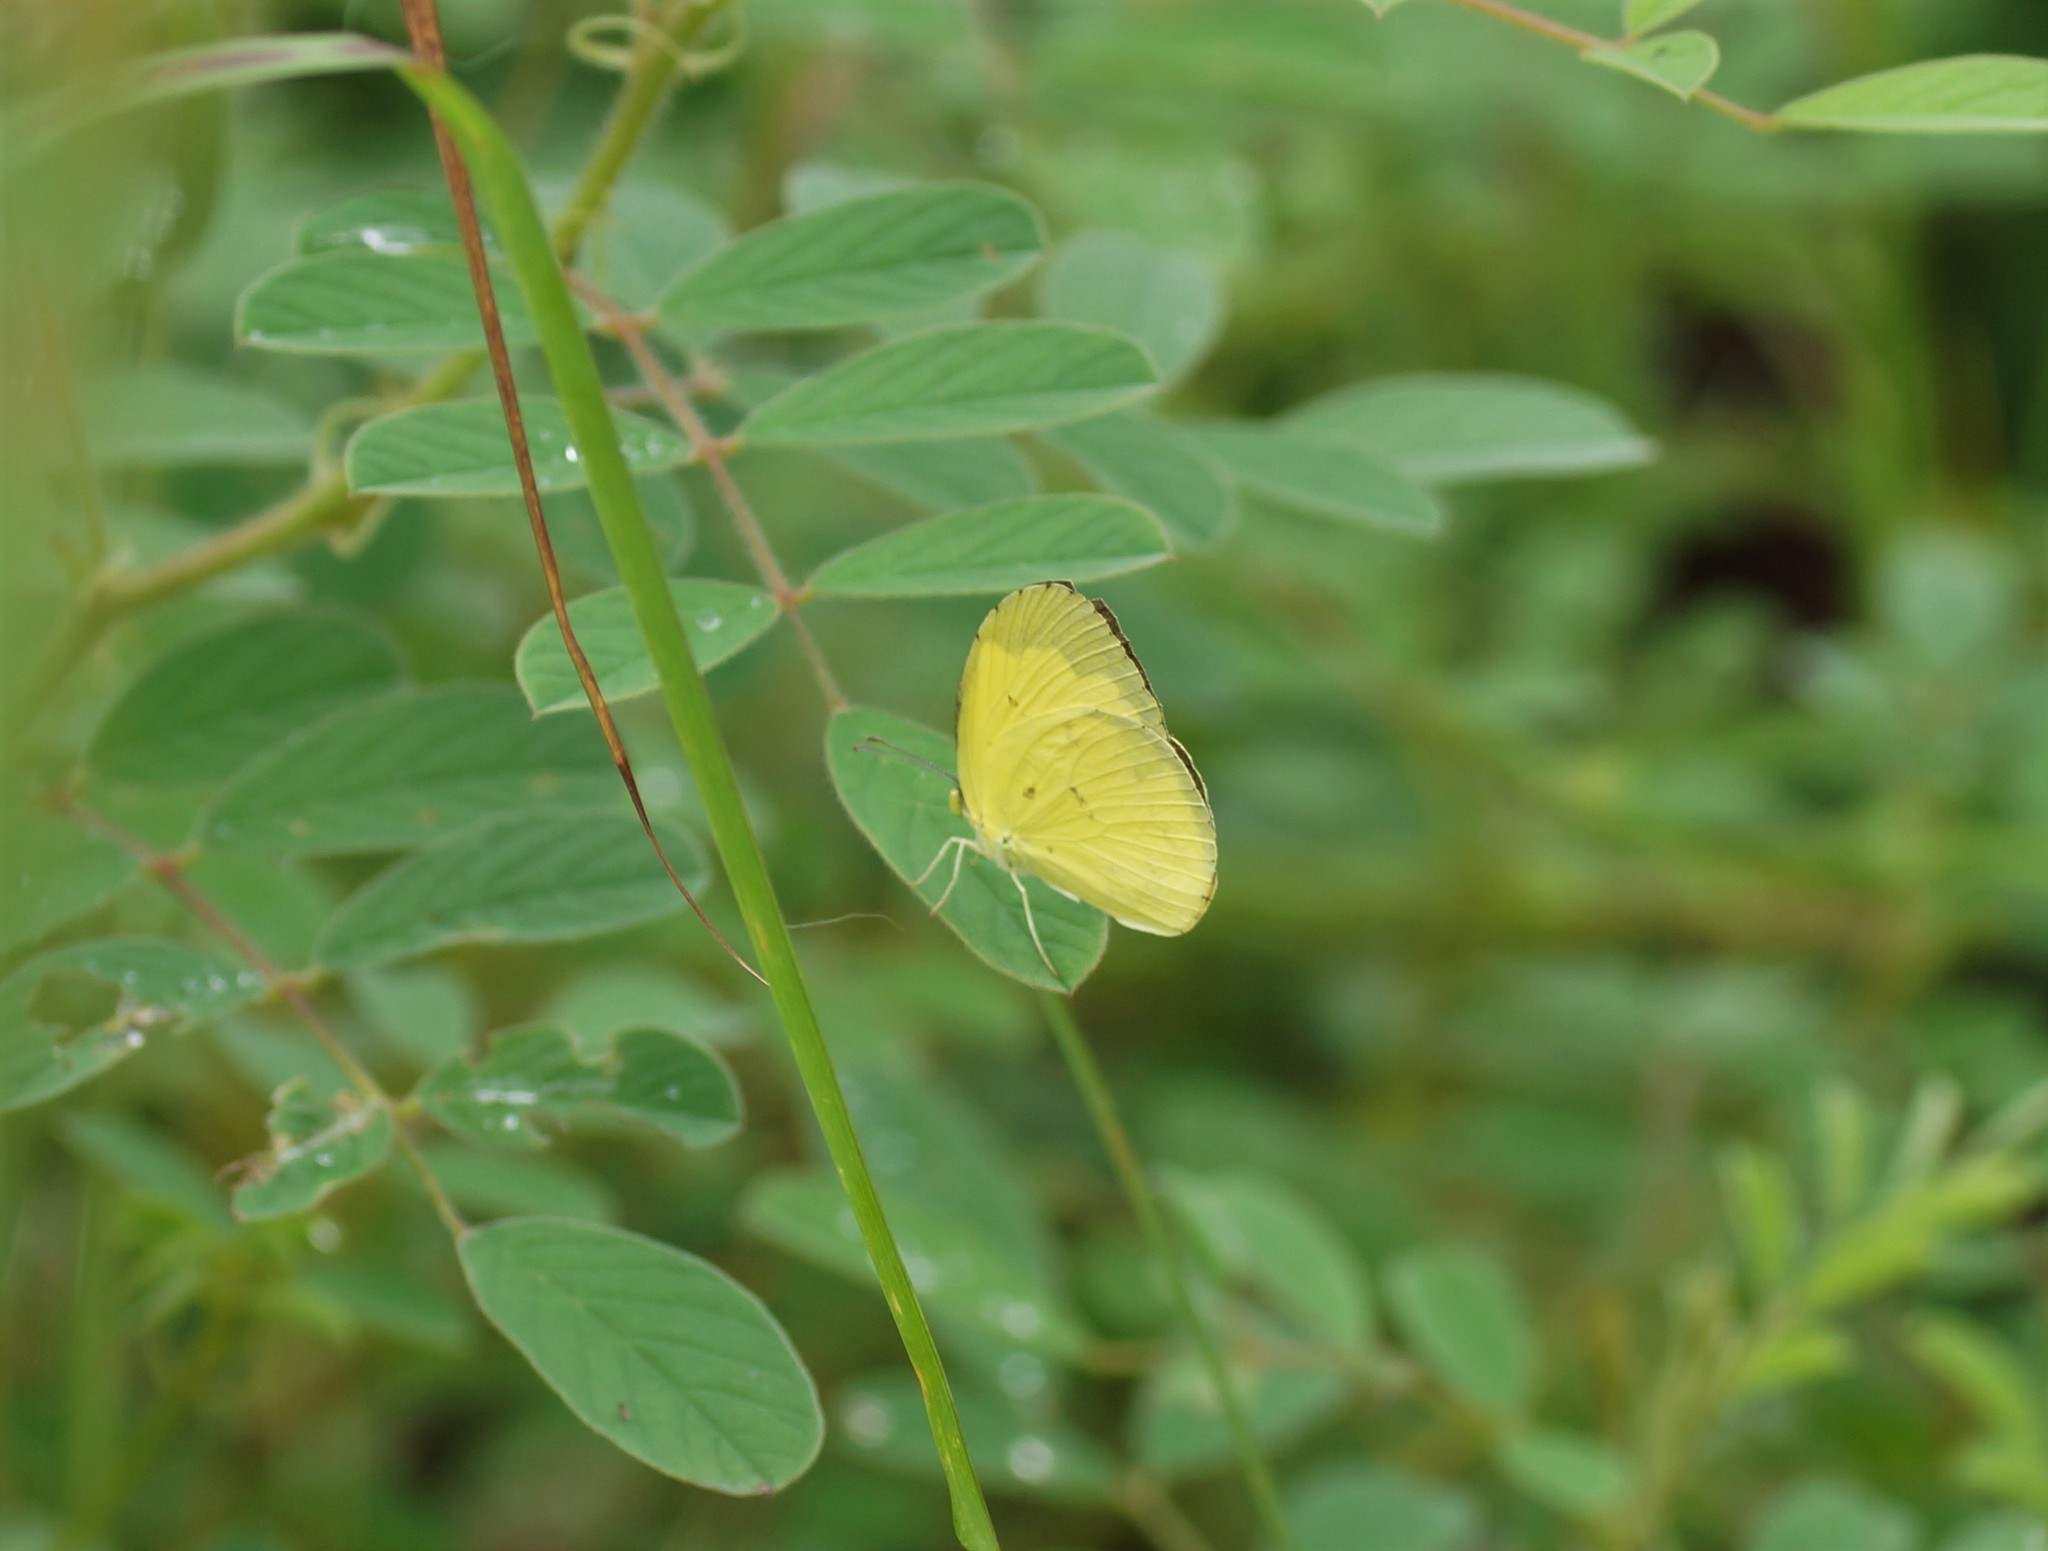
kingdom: Animalia
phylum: Arthropoda
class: Insecta
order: Lepidoptera
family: Pieridae
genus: Eurema
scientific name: Eurema hecabe
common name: Pale grass yellow
